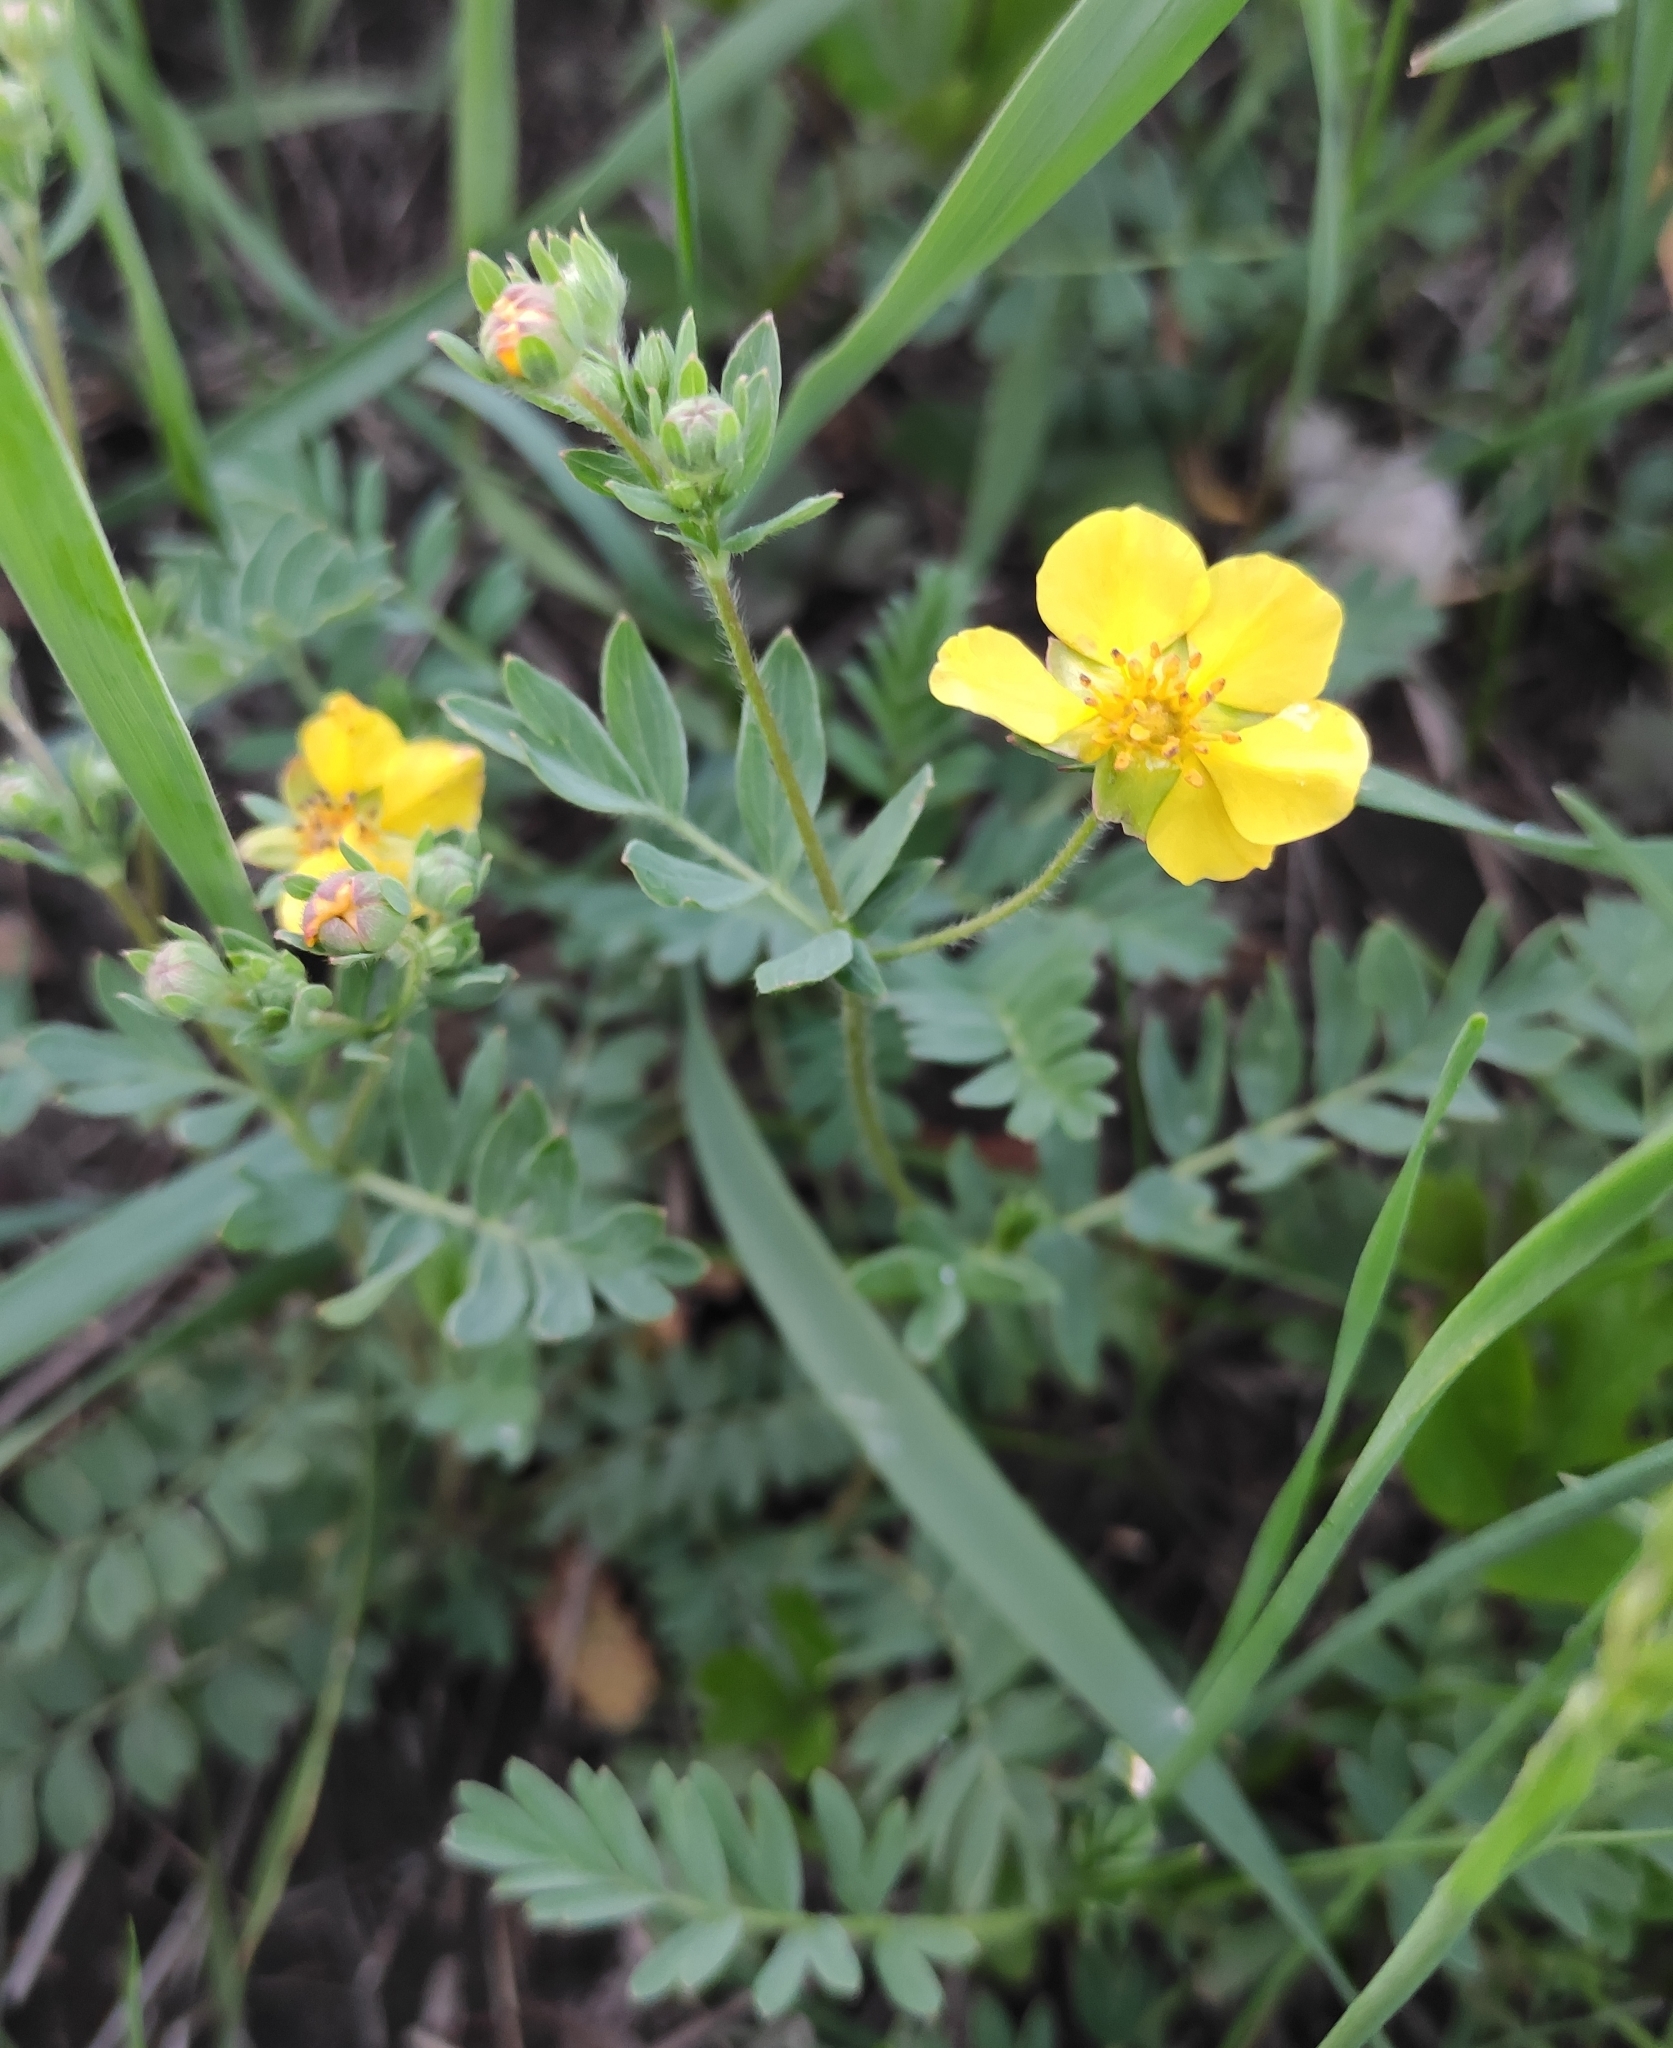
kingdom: Plantae
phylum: Tracheophyta
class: Magnoliopsida
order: Rosales
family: Rosaceae
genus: Sibbaldianthe
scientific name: Sibbaldianthe bifurca
